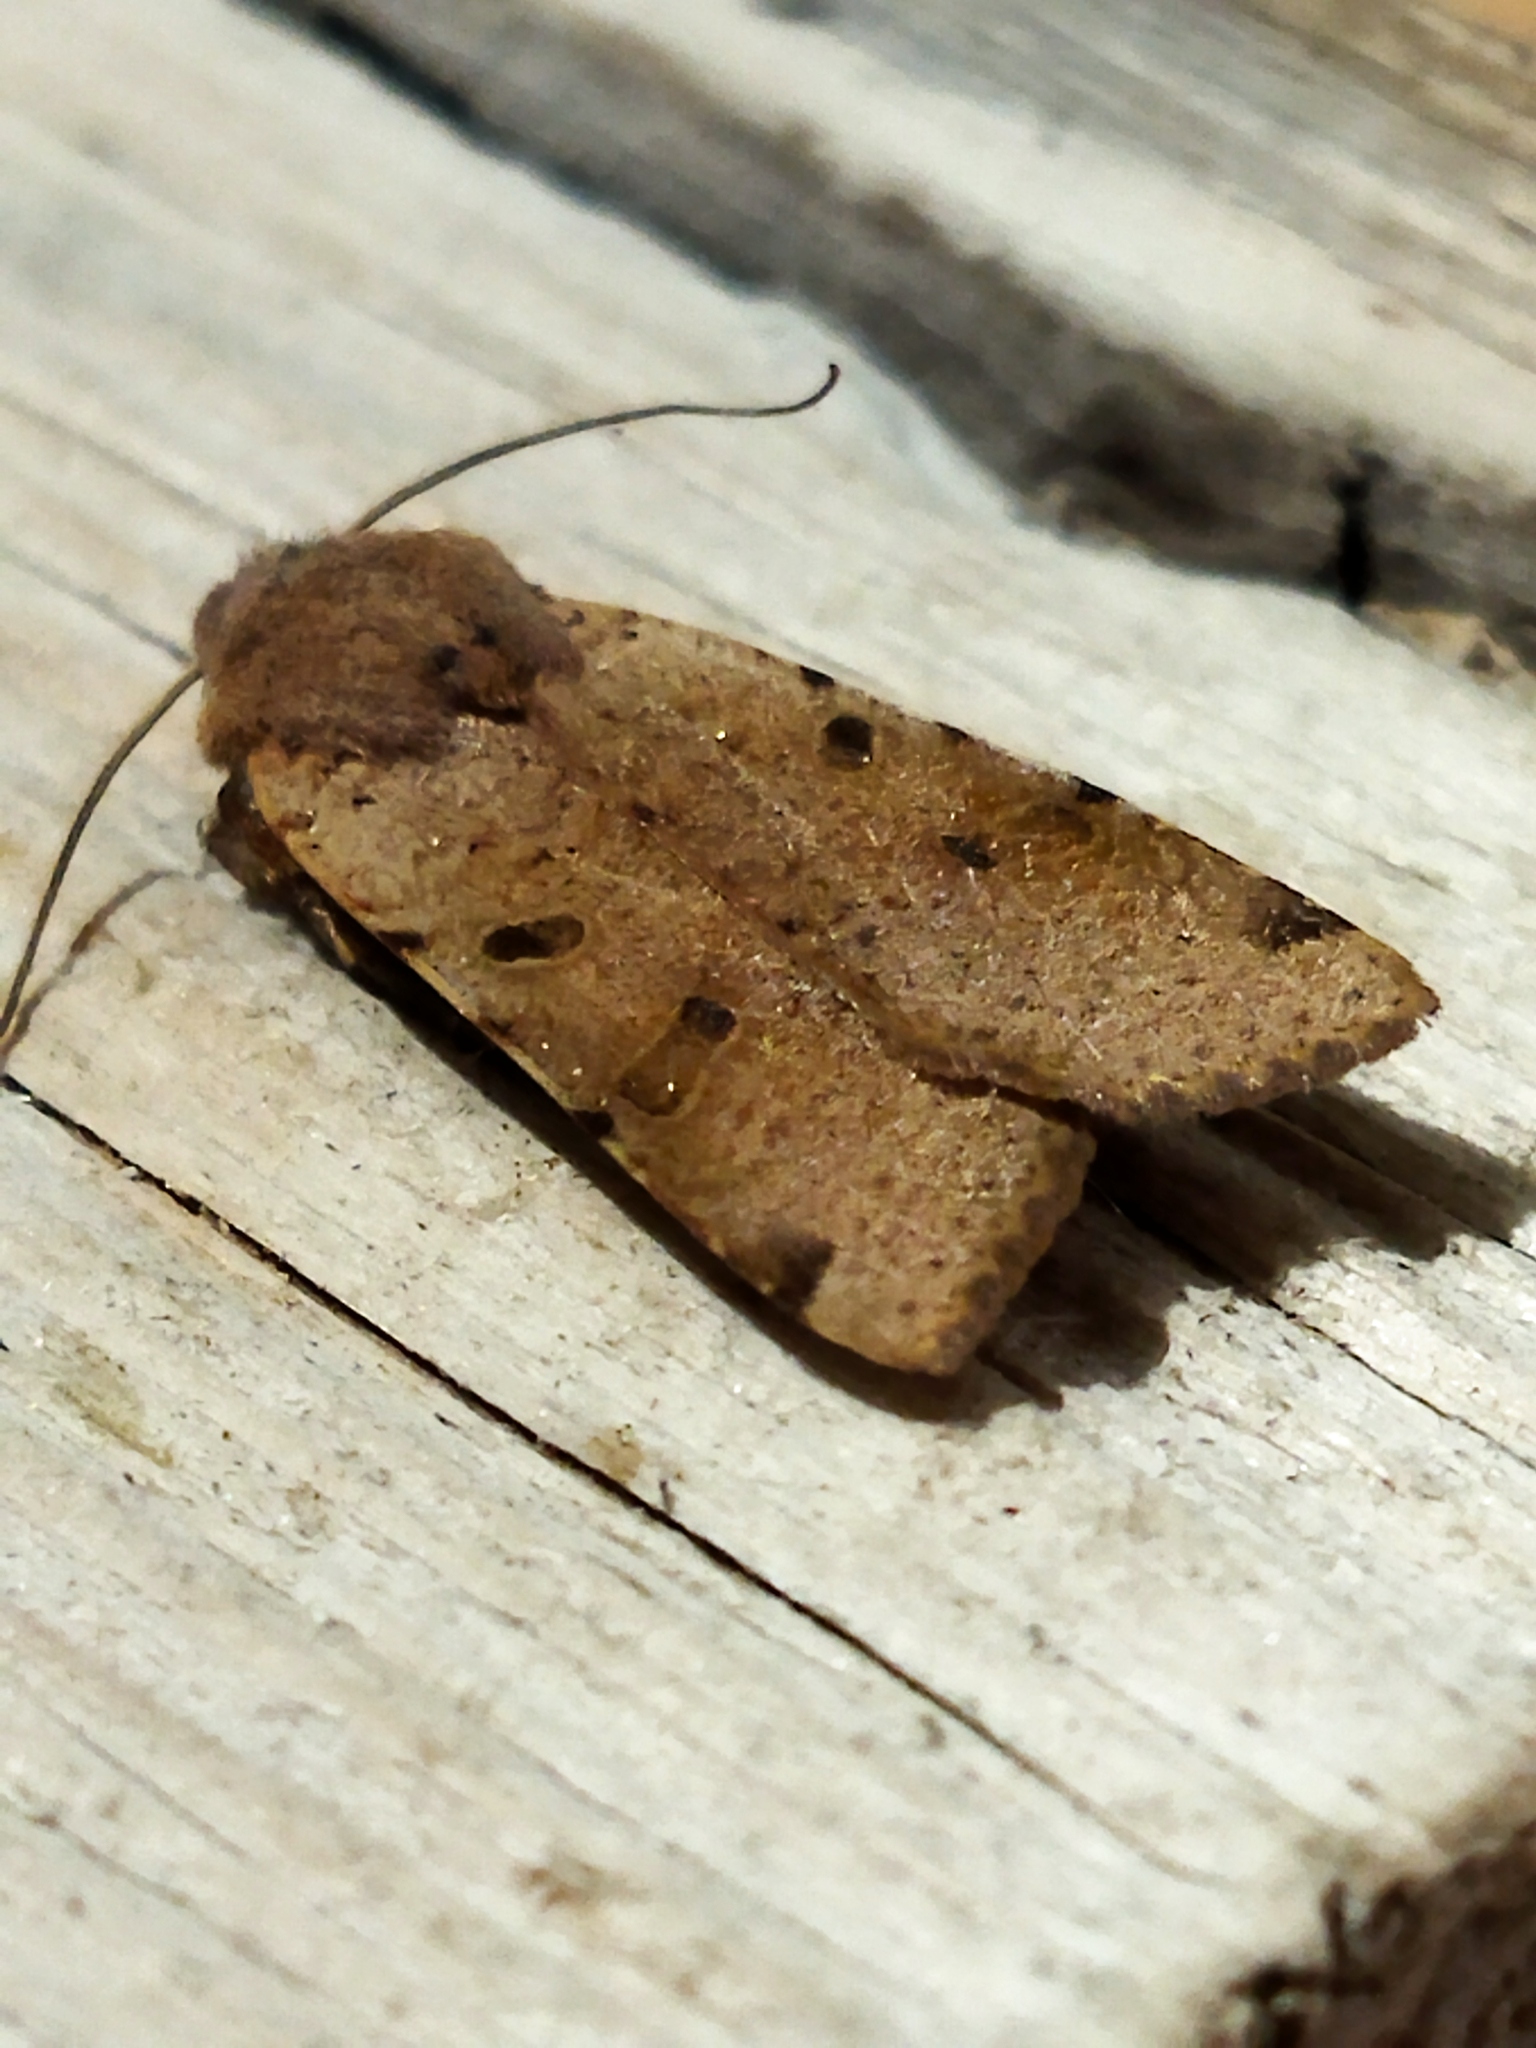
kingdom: Animalia
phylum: Arthropoda
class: Insecta
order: Lepidoptera
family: Noctuidae
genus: Agrochola
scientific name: Agrochola lychnidis
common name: Beaded chestnut
